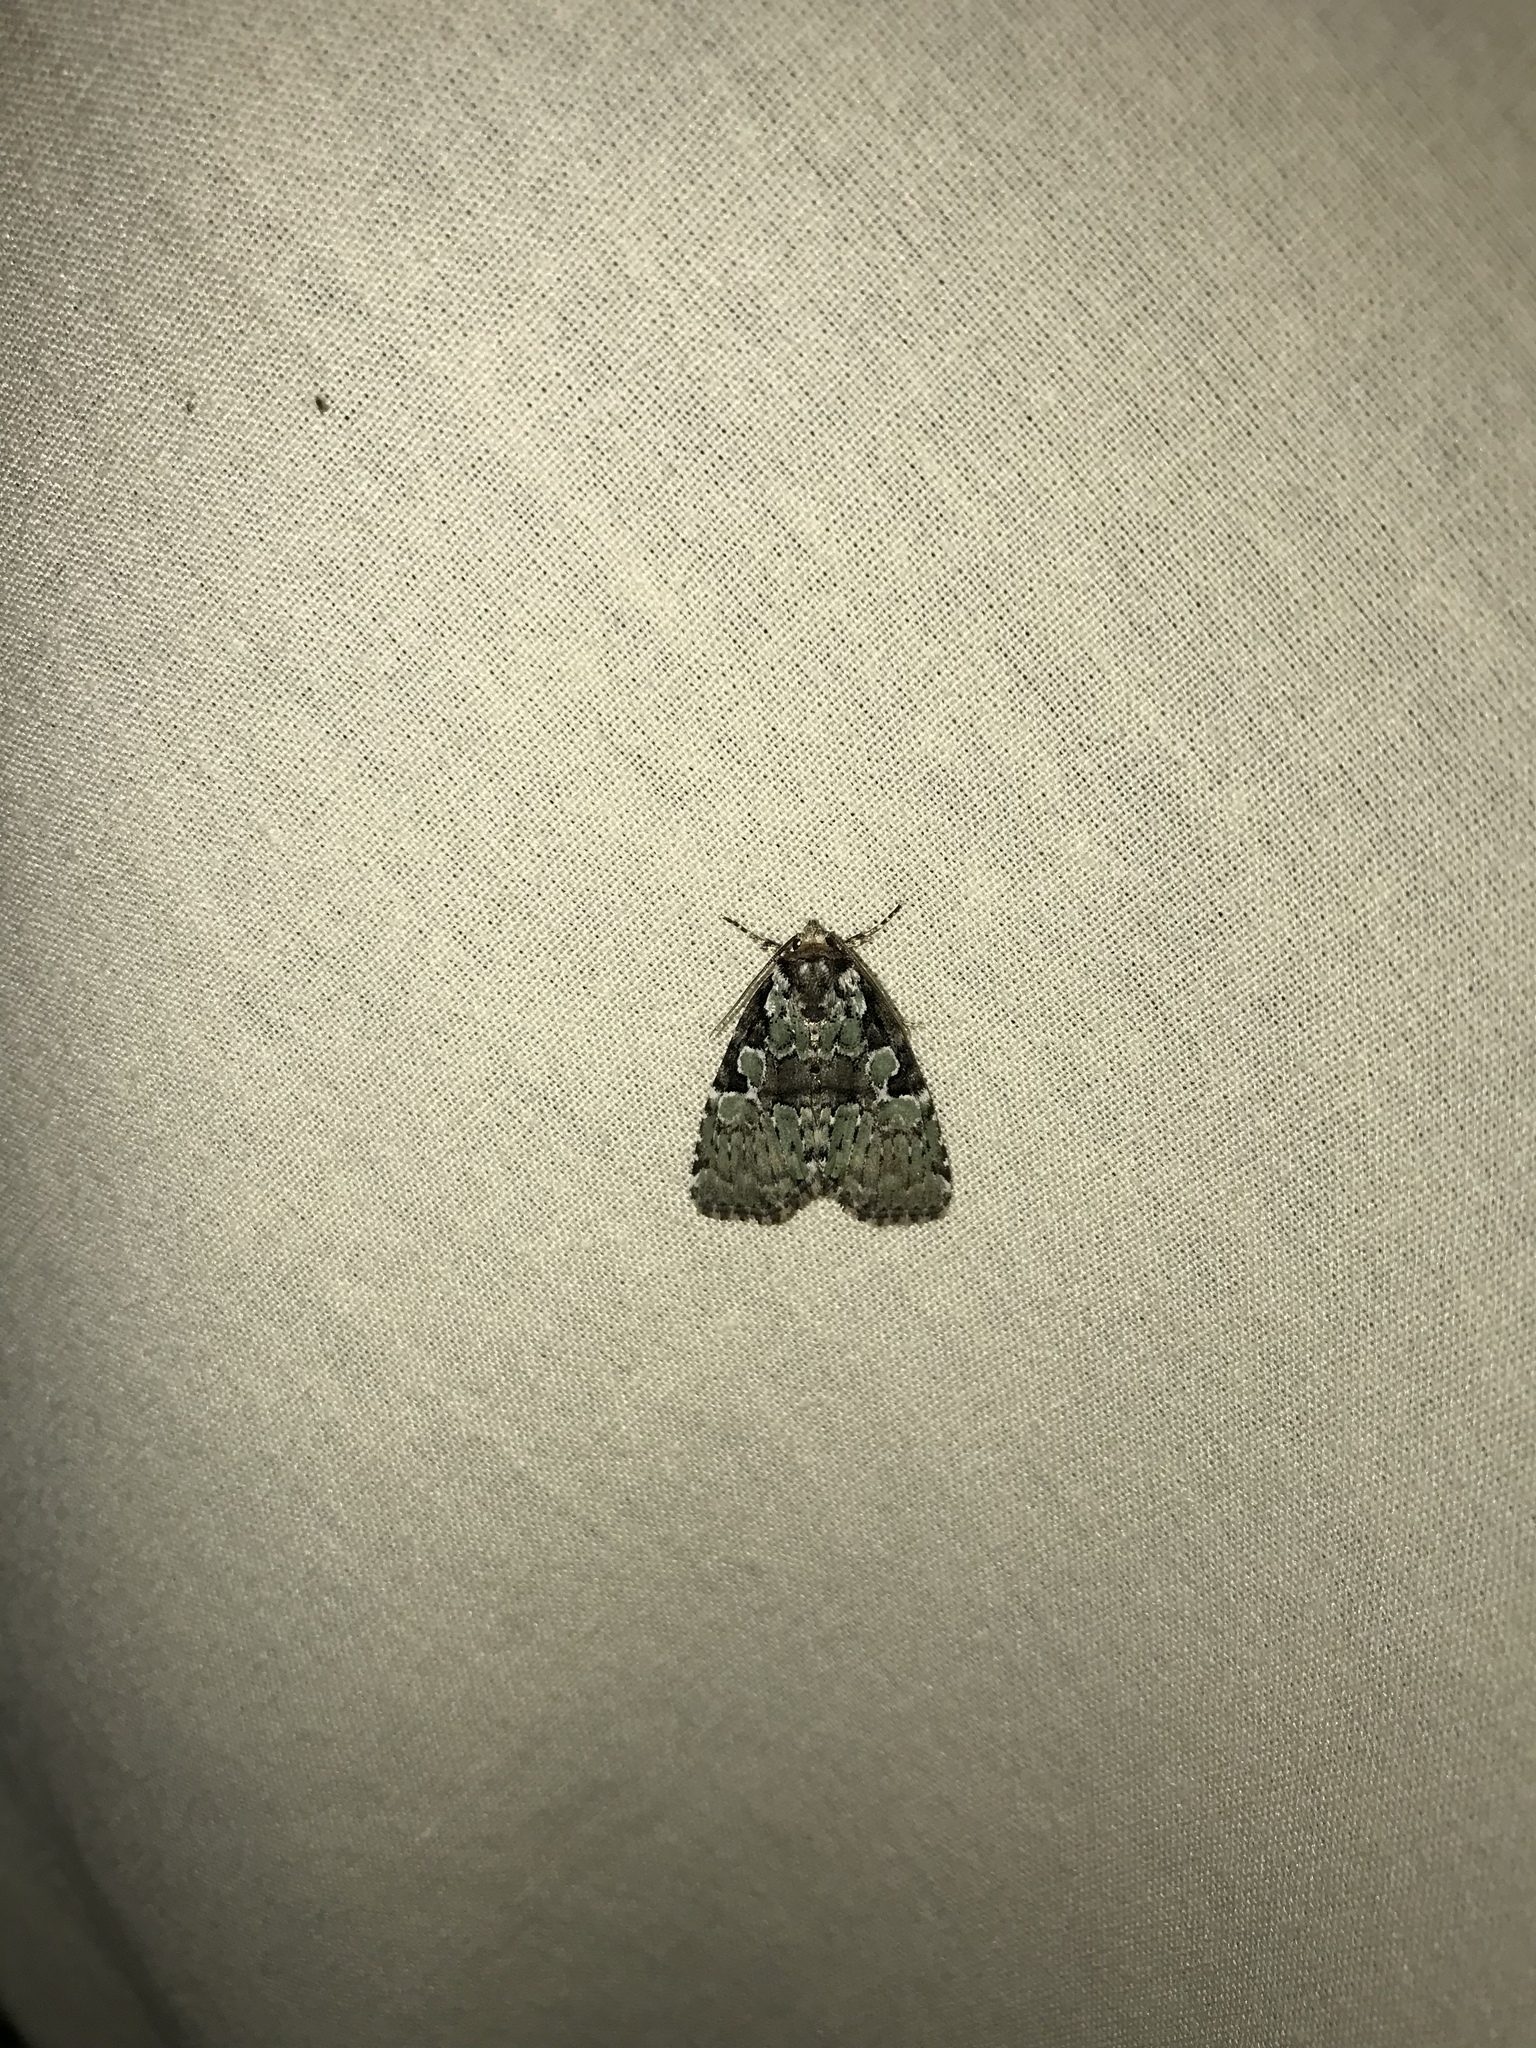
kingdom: Animalia
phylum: Arthropoda
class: Insecta
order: Lepidoptera
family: Noctuidae
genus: Leuconycta
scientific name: Leuconycta lepidula
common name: Marbled-green leuconycta moth
